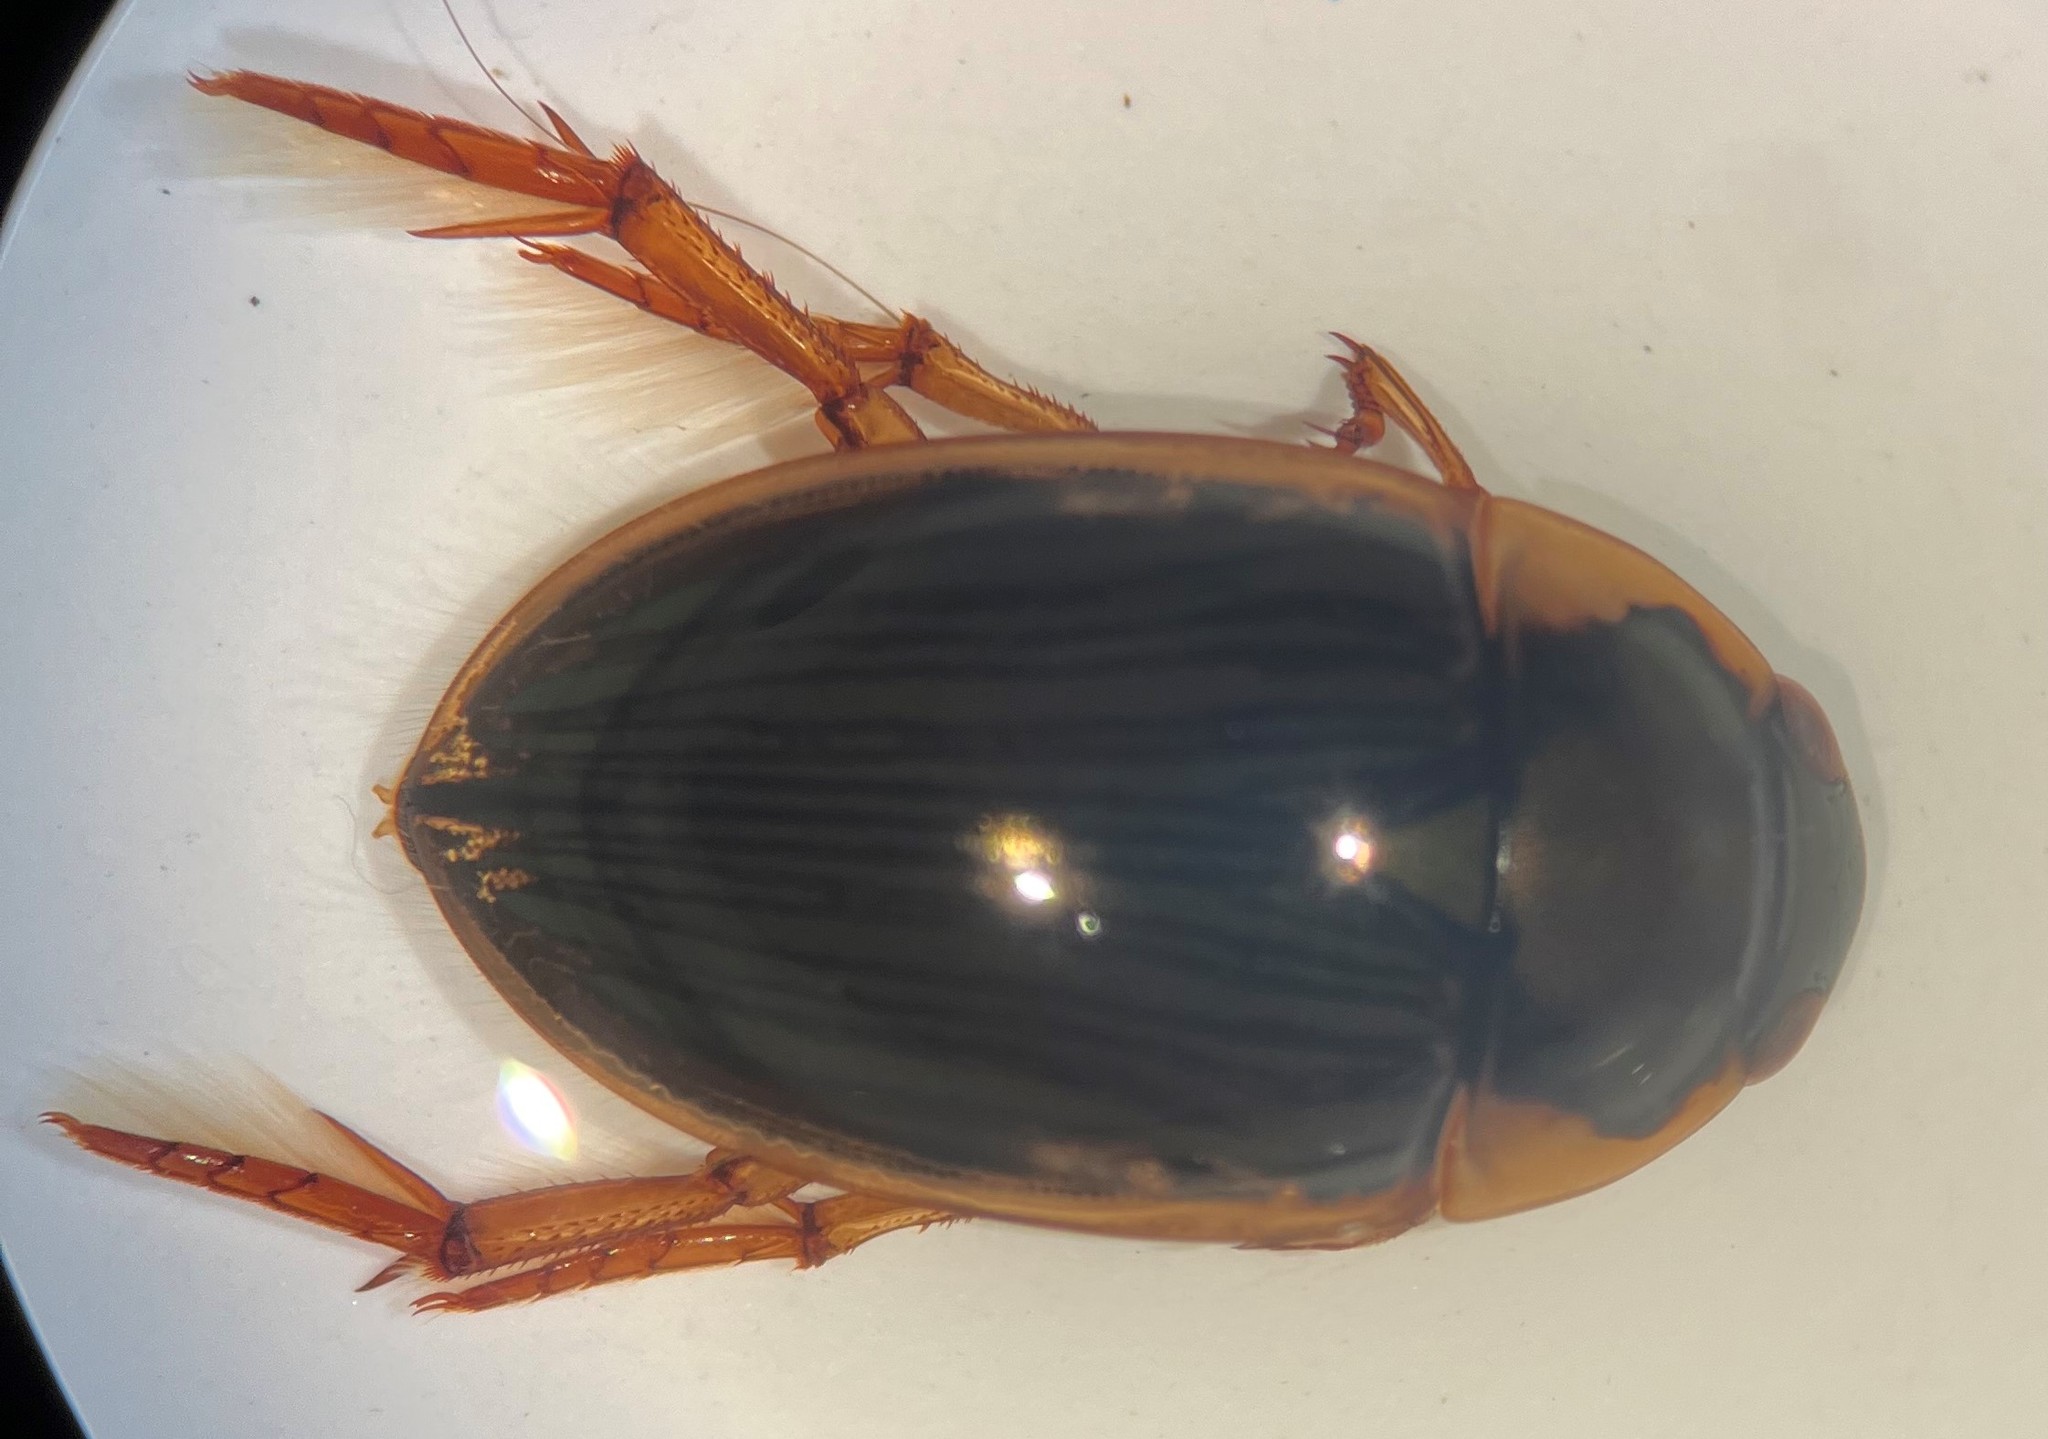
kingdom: Animalia
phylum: Arthropoda
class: Insecta
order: Coleoptera
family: Hydrophilidae
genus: Tropisternus
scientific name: Tropisternus collaris
